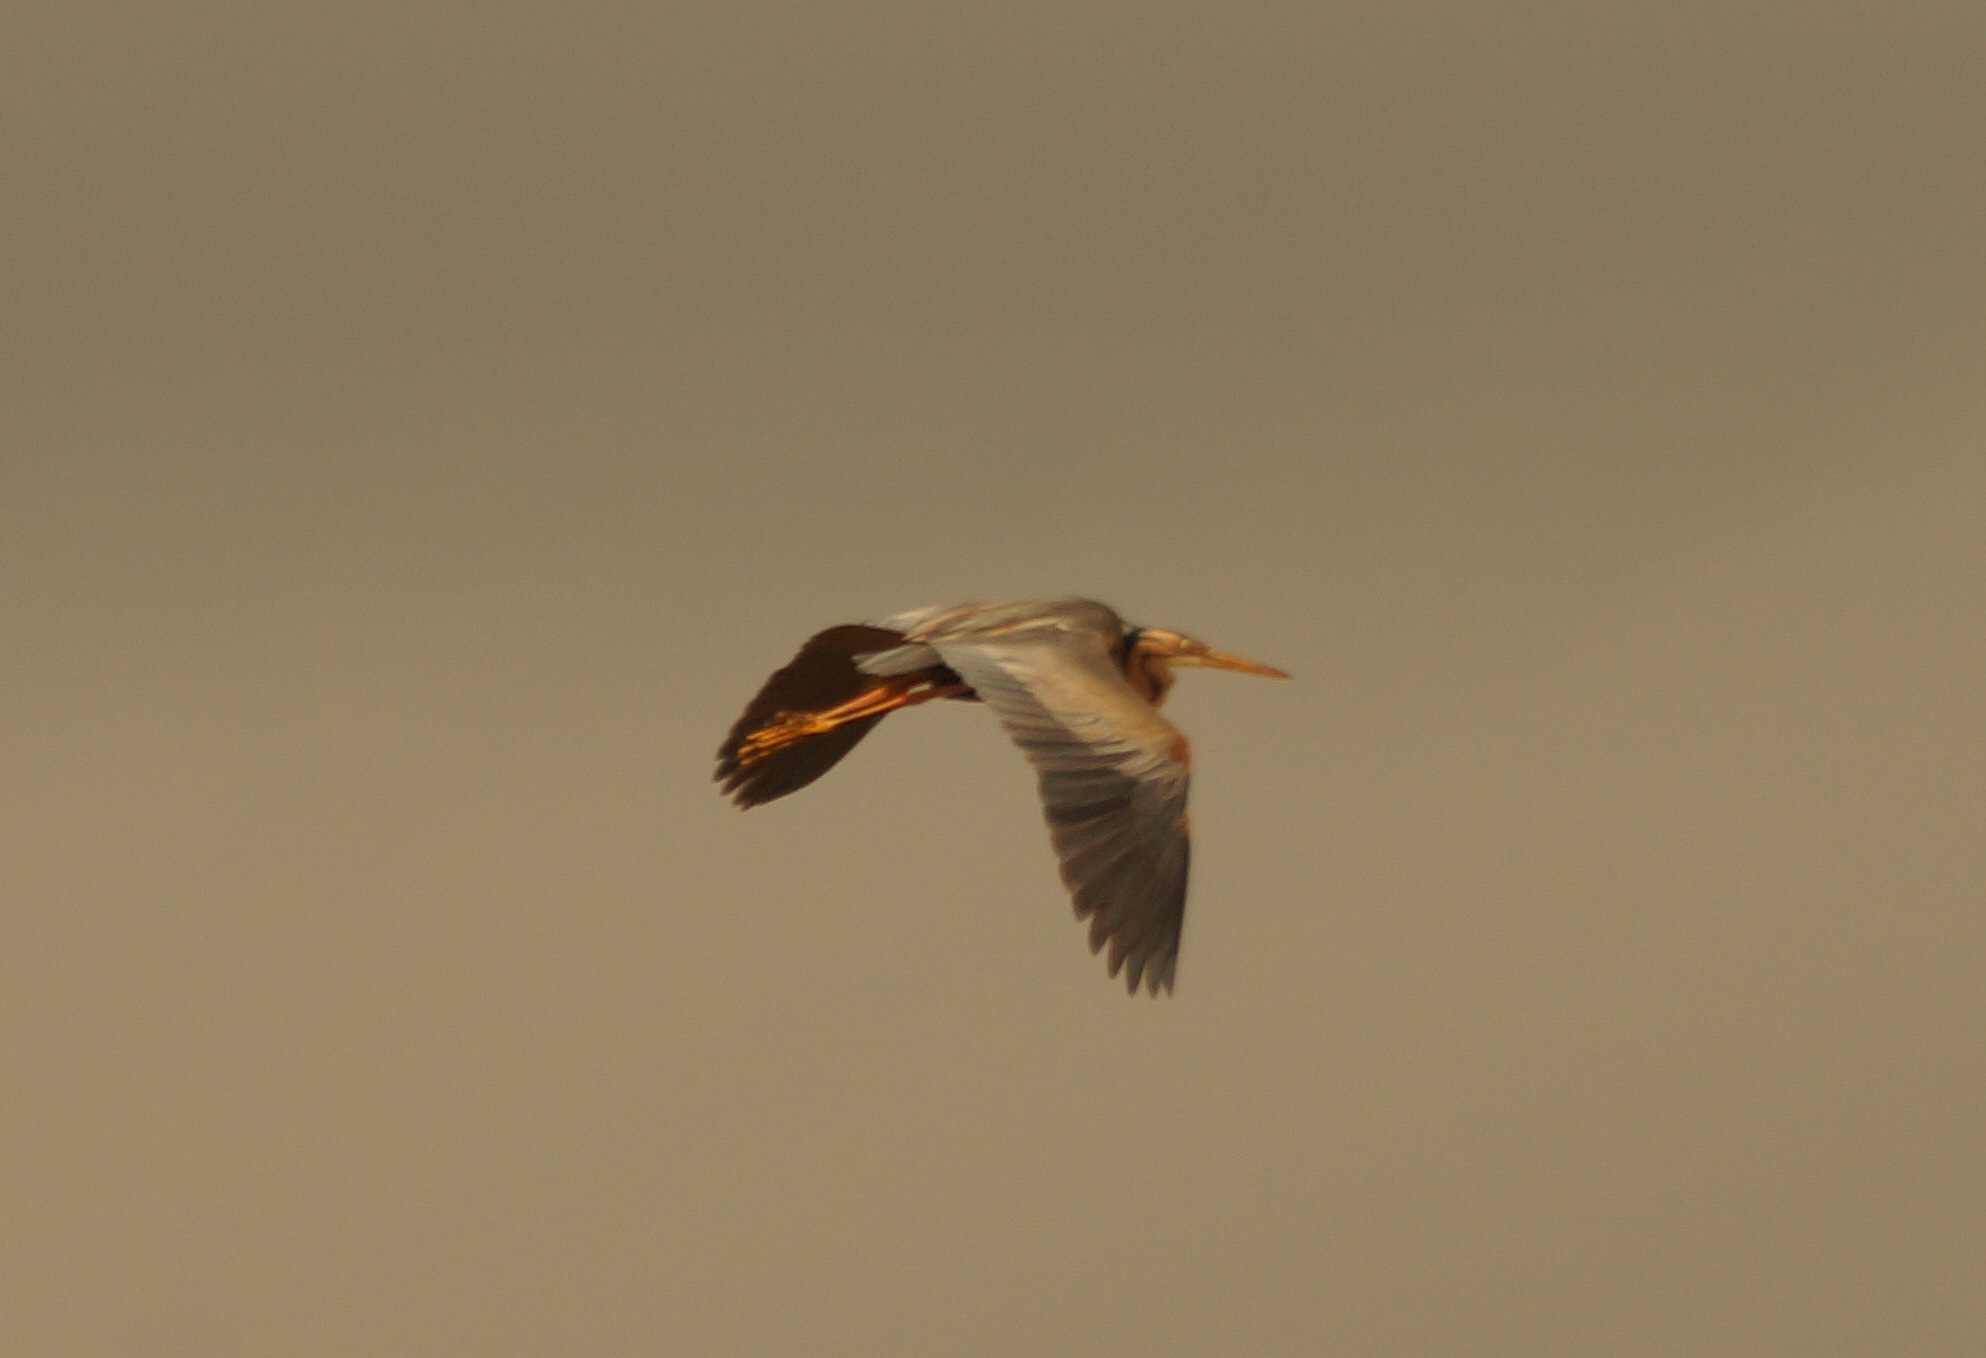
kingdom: Animalia
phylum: Chordata
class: Aves
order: Pelecaniformes
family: Ardeidae
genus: Ardea
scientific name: Ardea purpurea
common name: Purple heron
